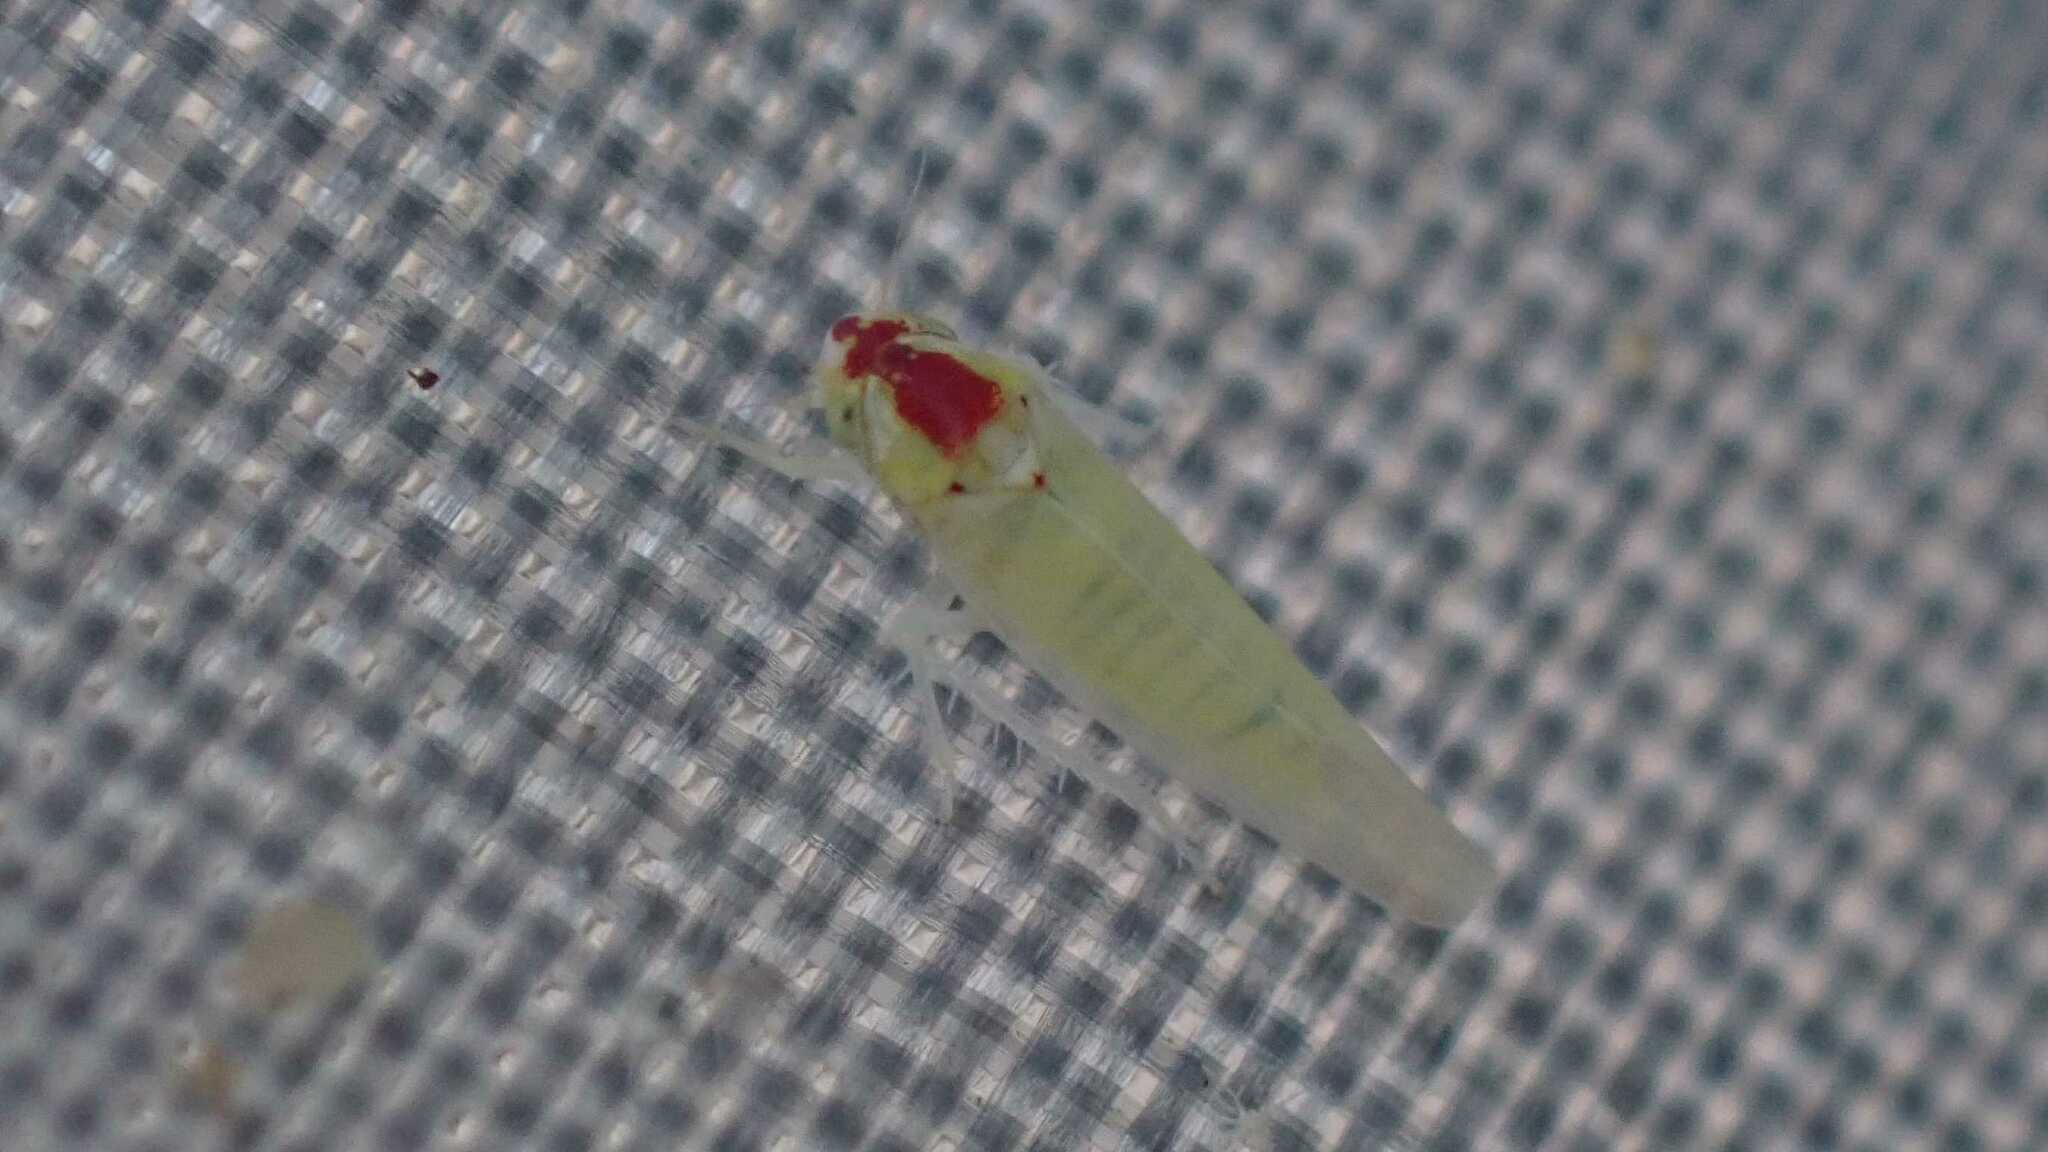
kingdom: Animalia
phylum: Arthropoda
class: Insecta
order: Hemiptera
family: Cicadellidae
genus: Zygina
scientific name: Zygina nivea
